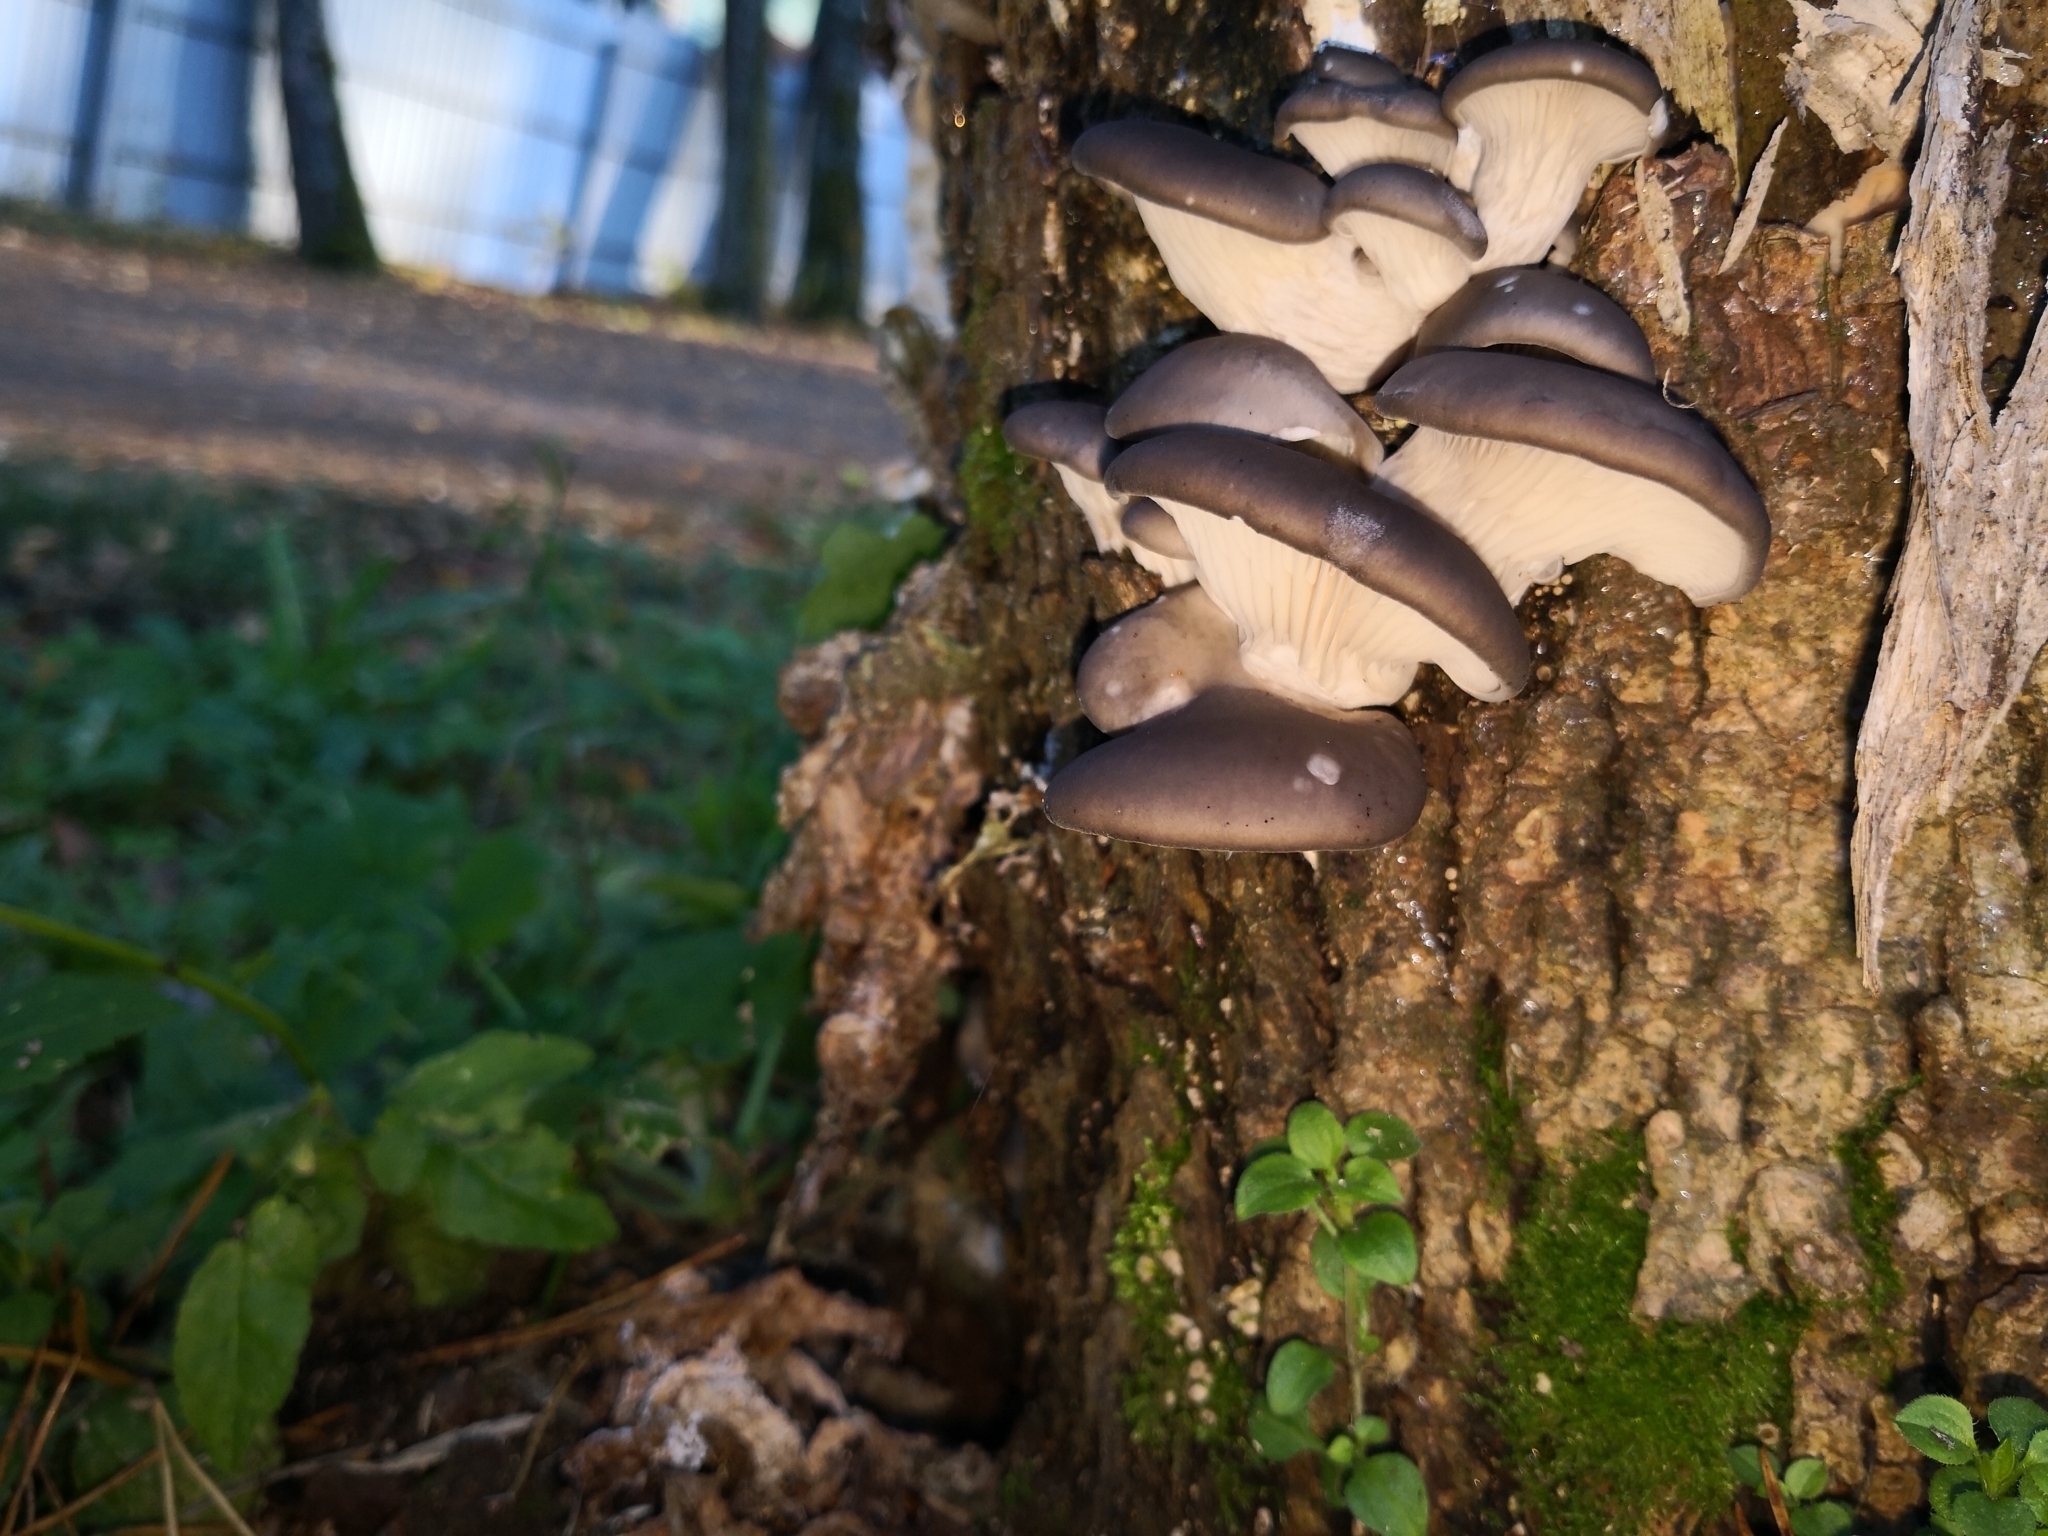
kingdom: Fungi
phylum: Basidiomycota
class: Agaricomycetes
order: Agaricales
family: Pleurotaceae
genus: Pleurotus
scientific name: Pleurotus ostreatus
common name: Oyster mushroom
